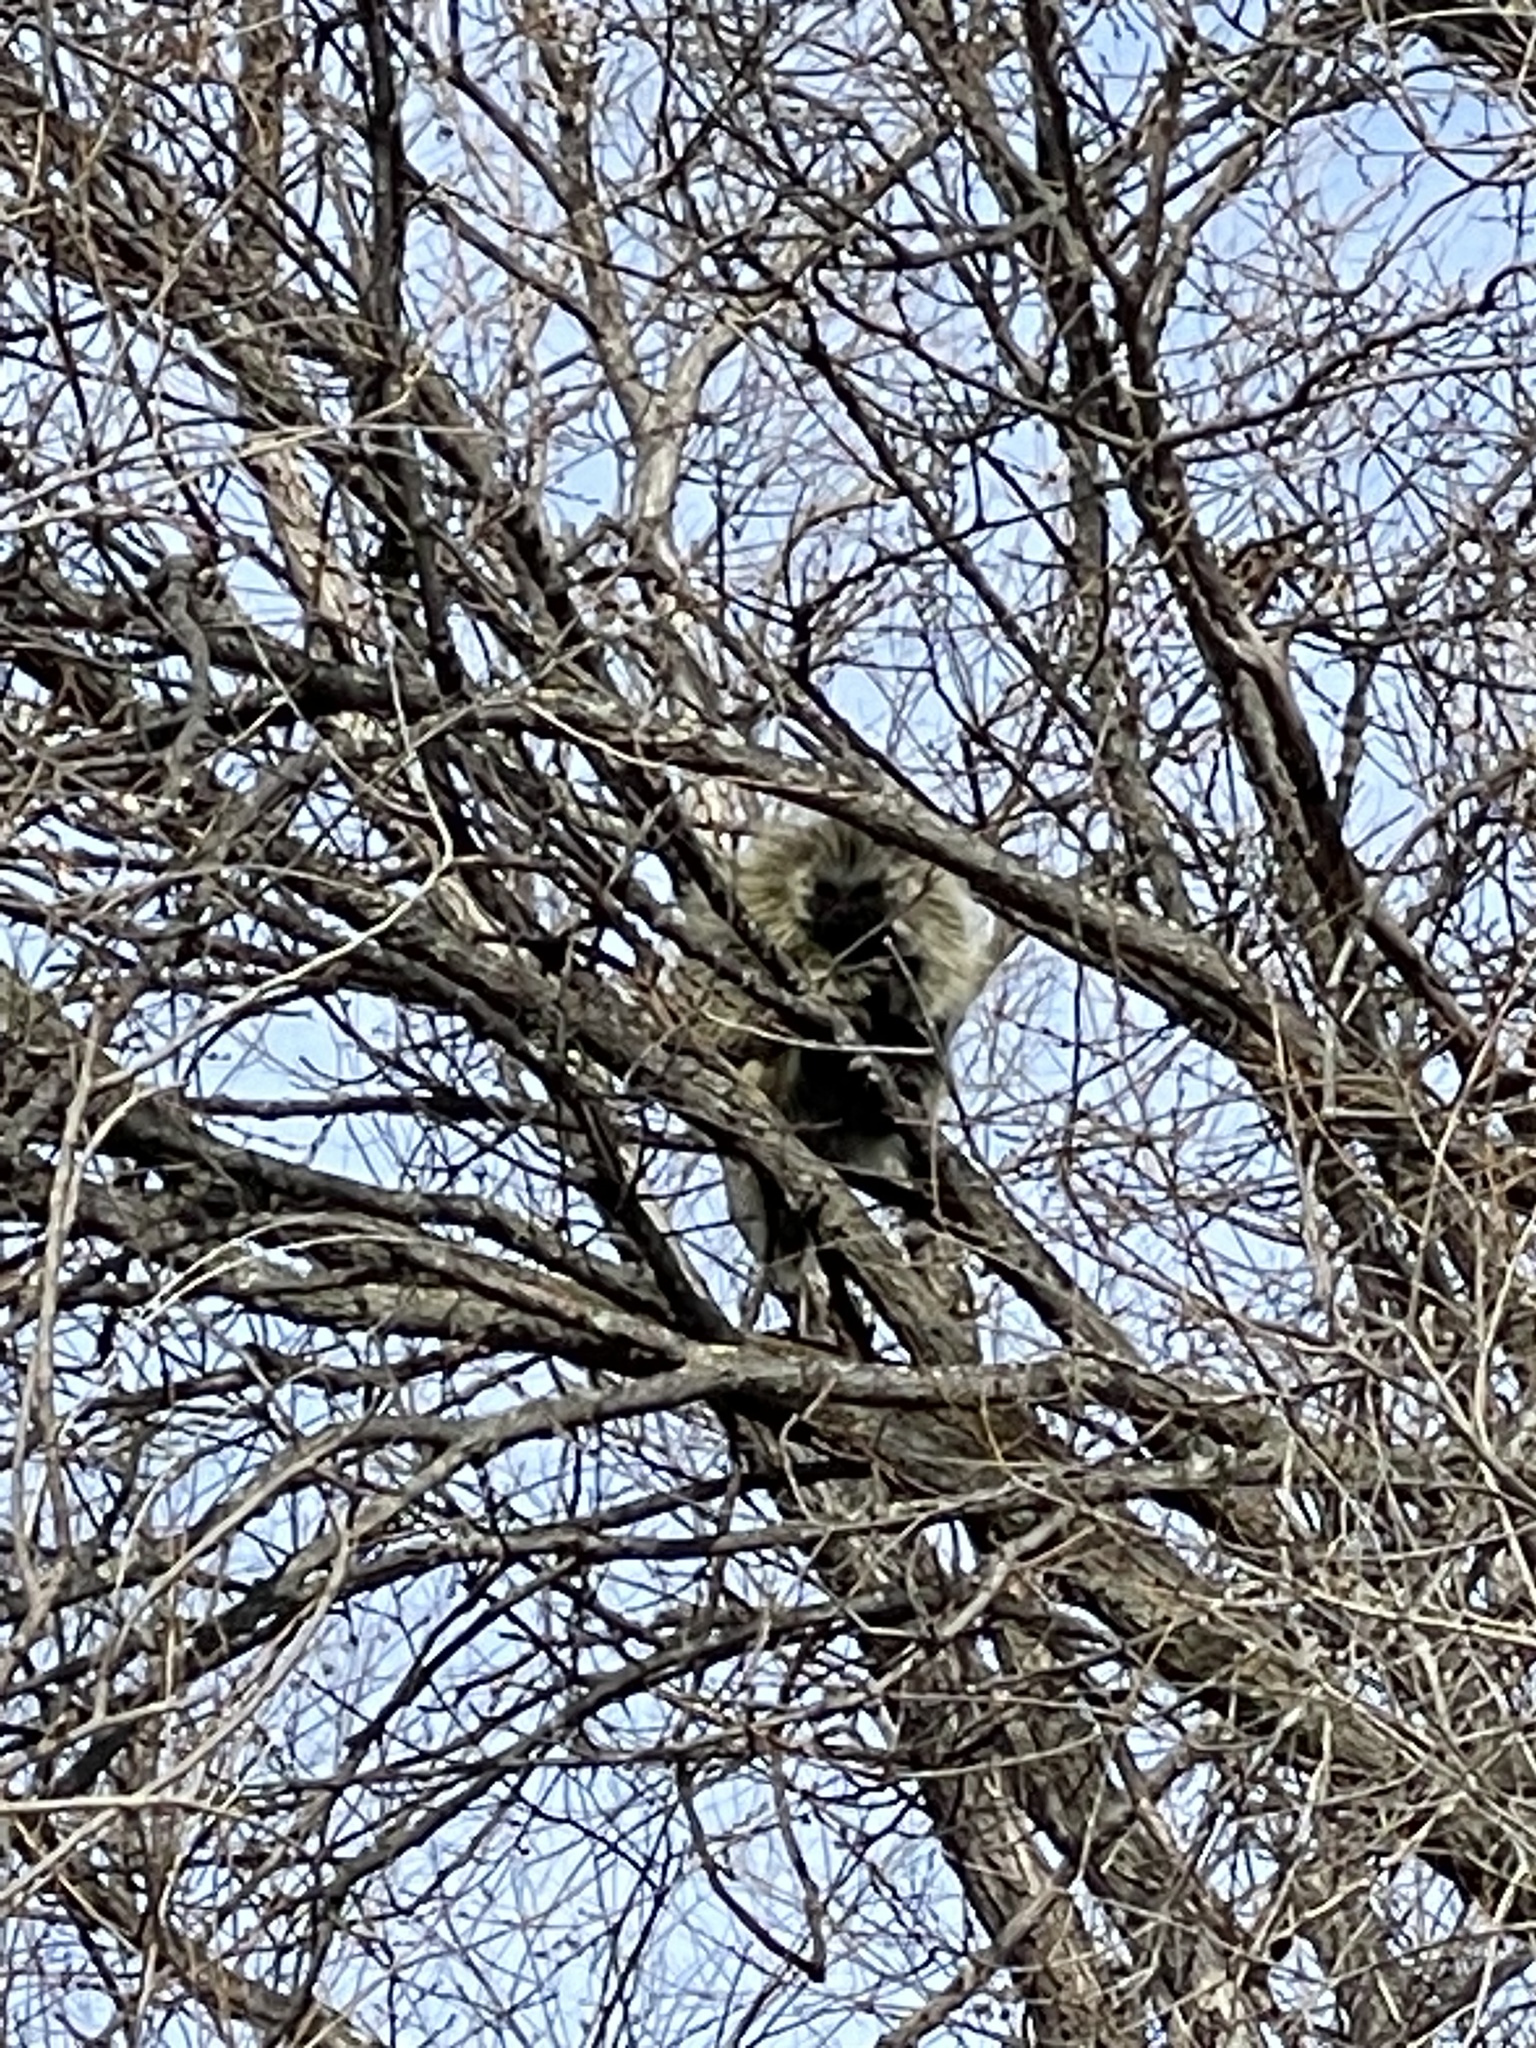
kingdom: Animalia
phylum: Chordata
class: Mammalia
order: Rodentia
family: Erethizontidae
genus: Erethizon
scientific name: Erethizon dorsatus
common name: North american porcupine
